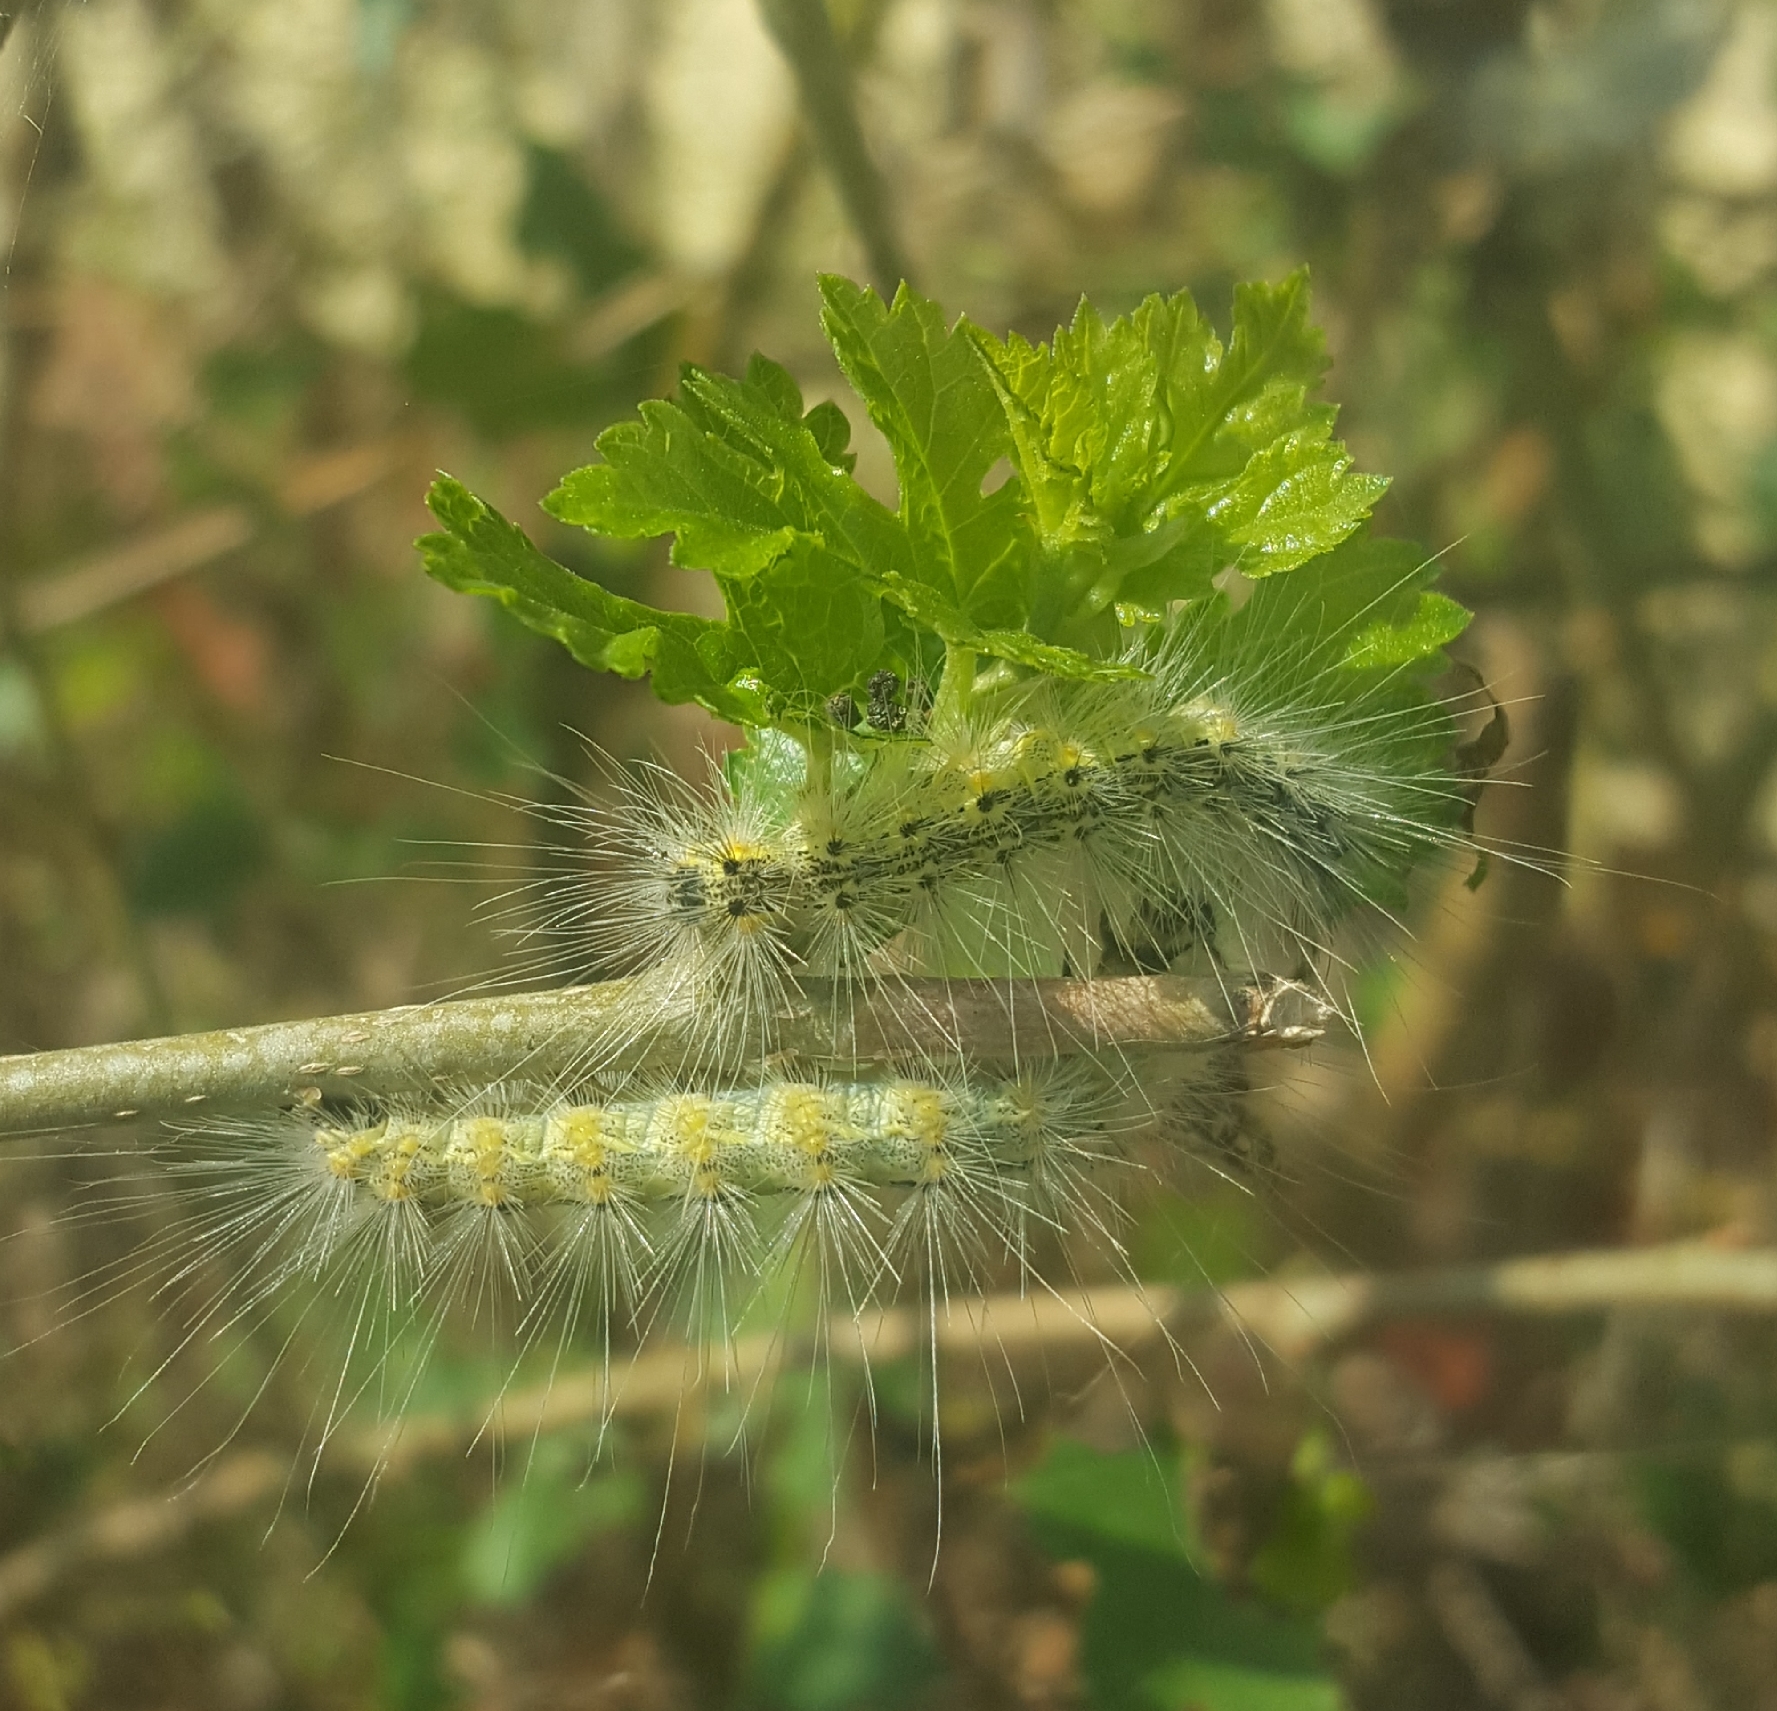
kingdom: Animalia
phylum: Arthropoda
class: Insecta
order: Lepidoptera
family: Erebidae
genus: Hyphantria
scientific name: Hyphantria cunea
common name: American white moth
